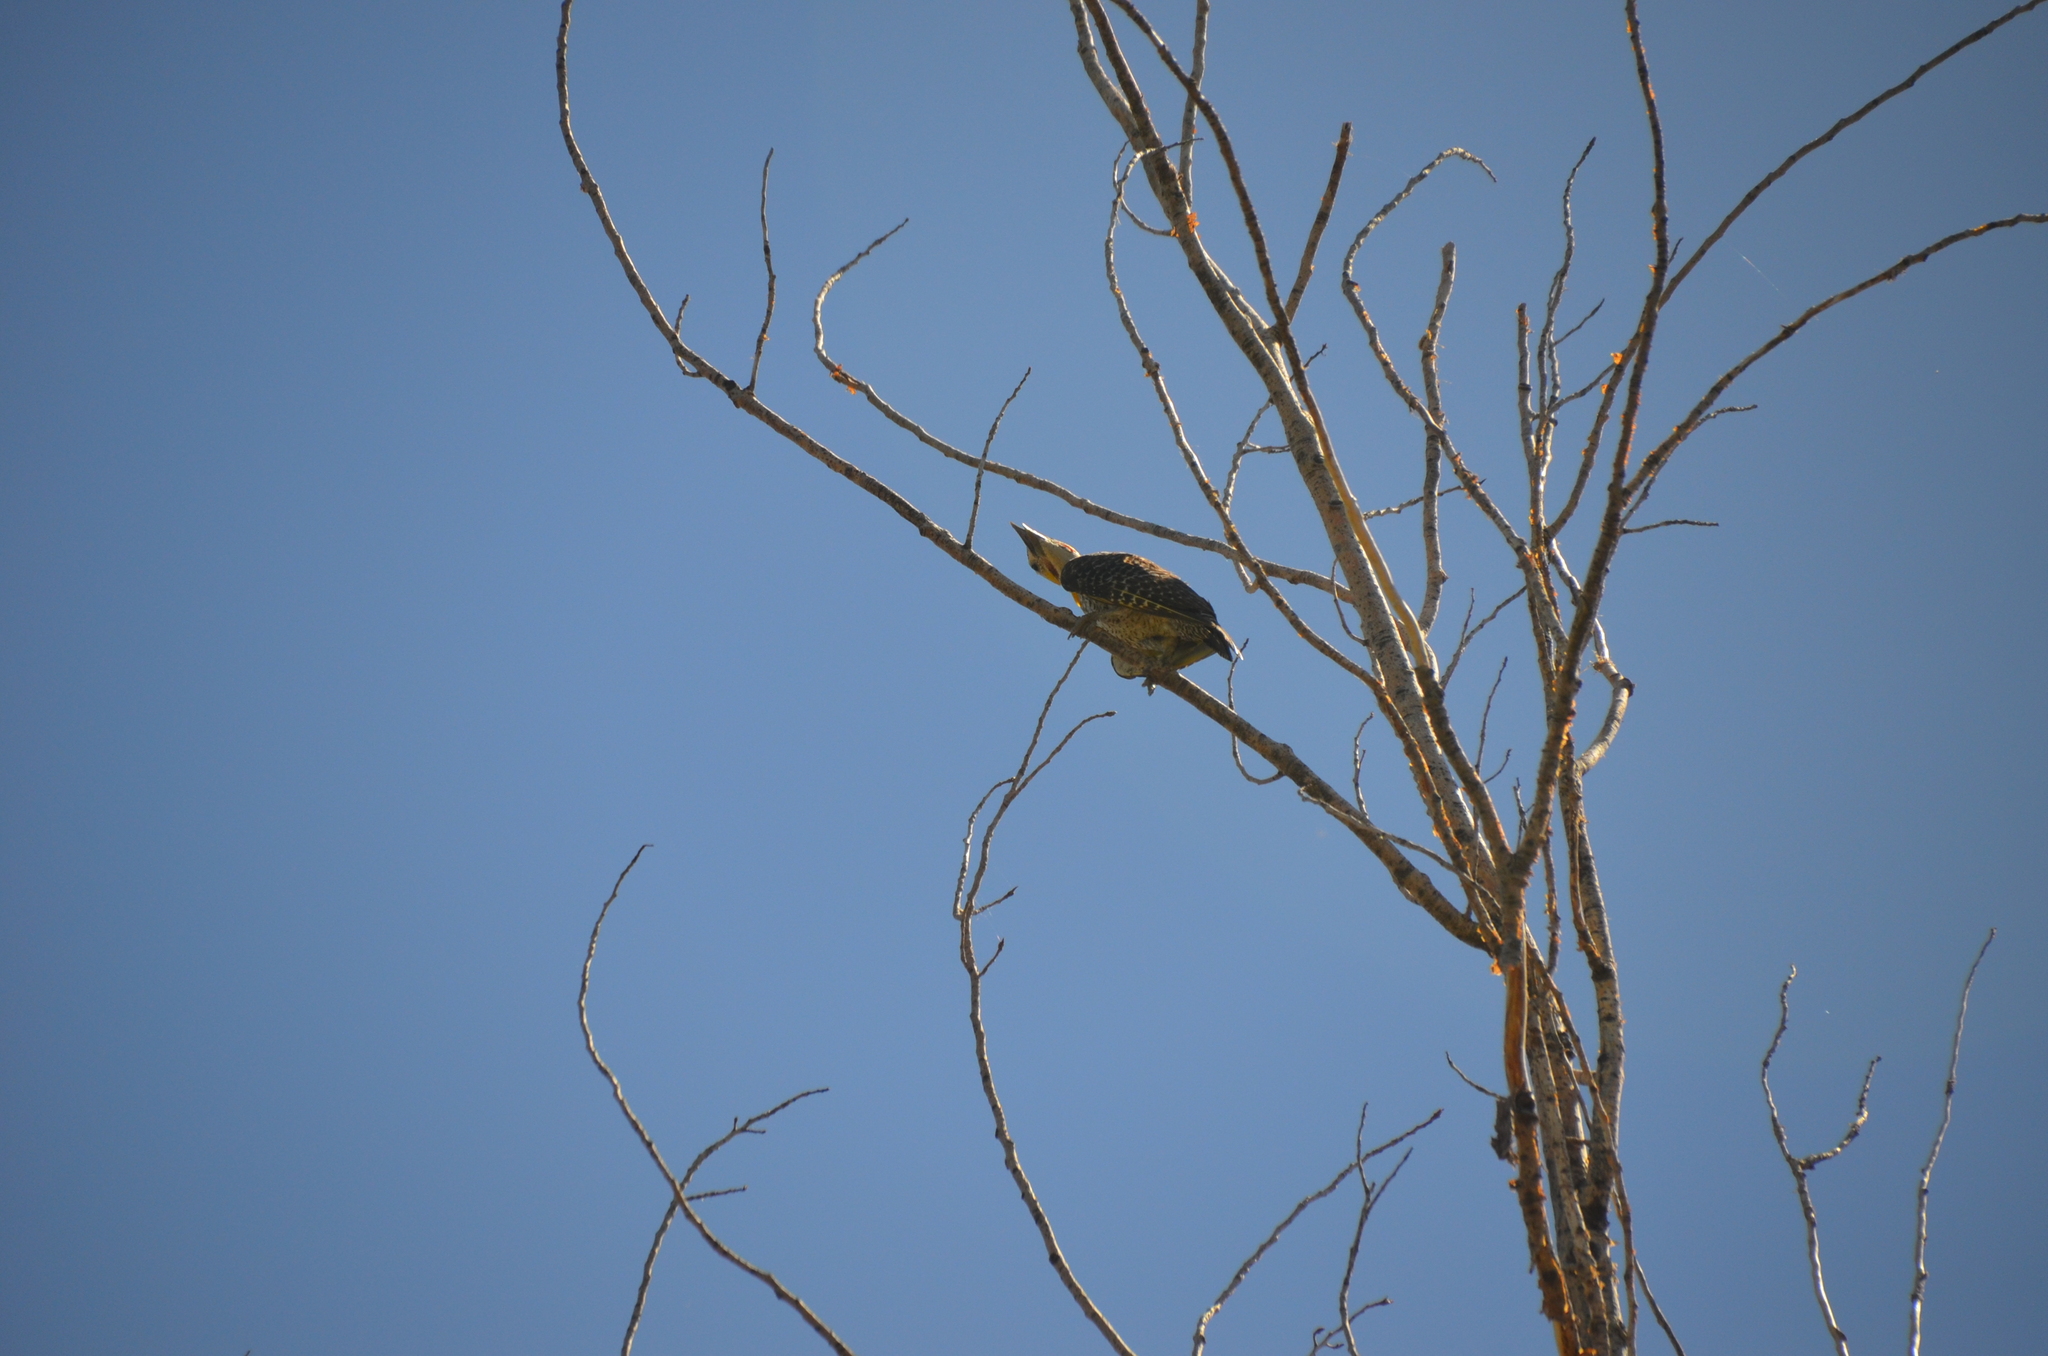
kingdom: Animalia
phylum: Chordata
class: Aves
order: Piciformes
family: Picidae
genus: Colaptes
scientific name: Colaptes campestris
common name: Campo flicker
